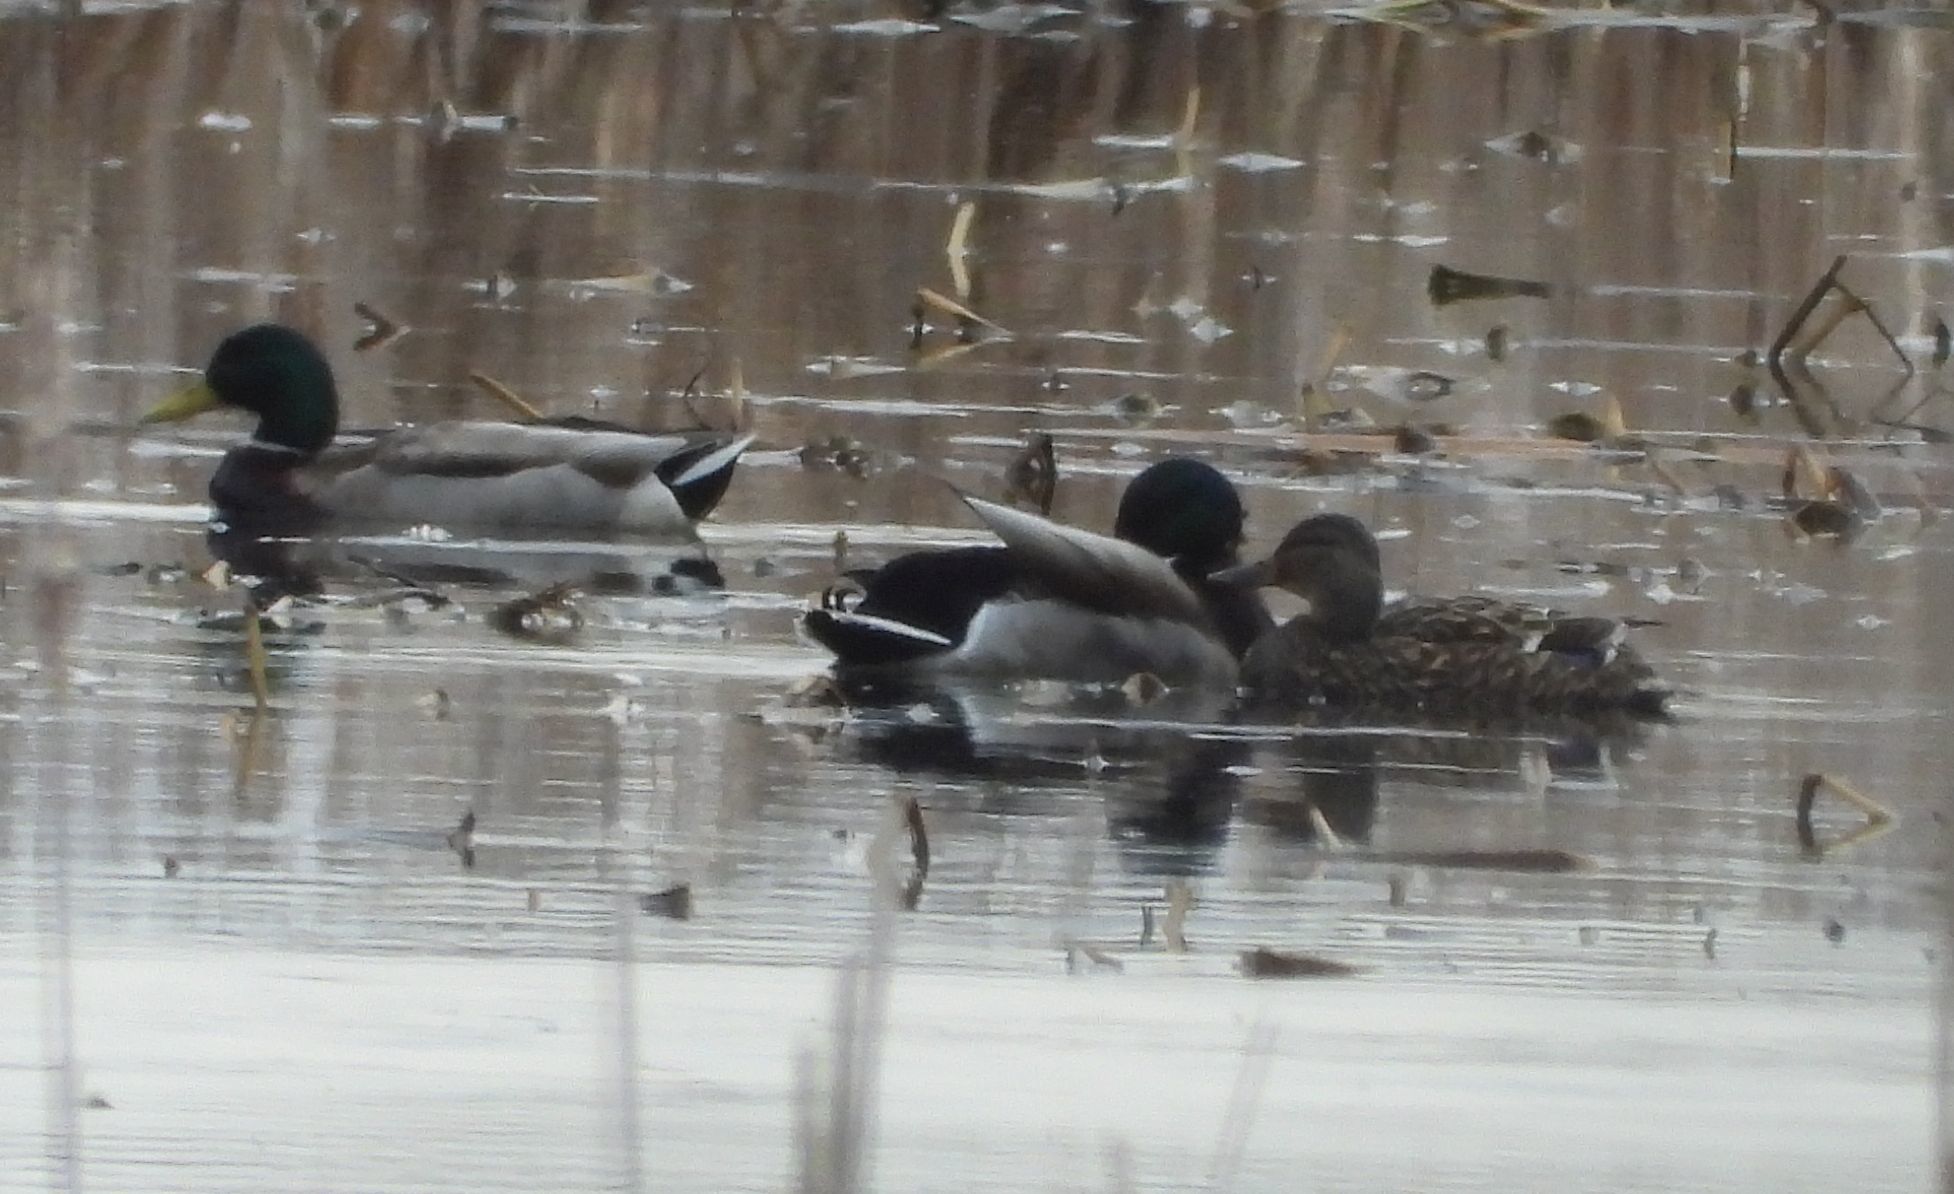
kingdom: Animalia
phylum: Chordata
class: Aves
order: Anseriformes
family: Anatidae
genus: Anas
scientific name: Anas platyrhynchos
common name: Mallard
